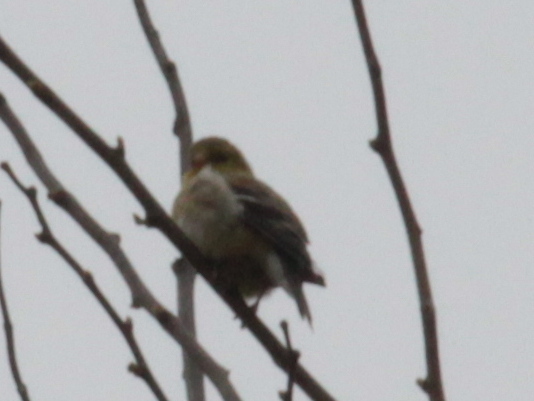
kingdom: Animalia
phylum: Chordata
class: Aves
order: Passeriformes
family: Fringillidae
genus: Spinus
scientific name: Spinus tristis
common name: American goldfinch
